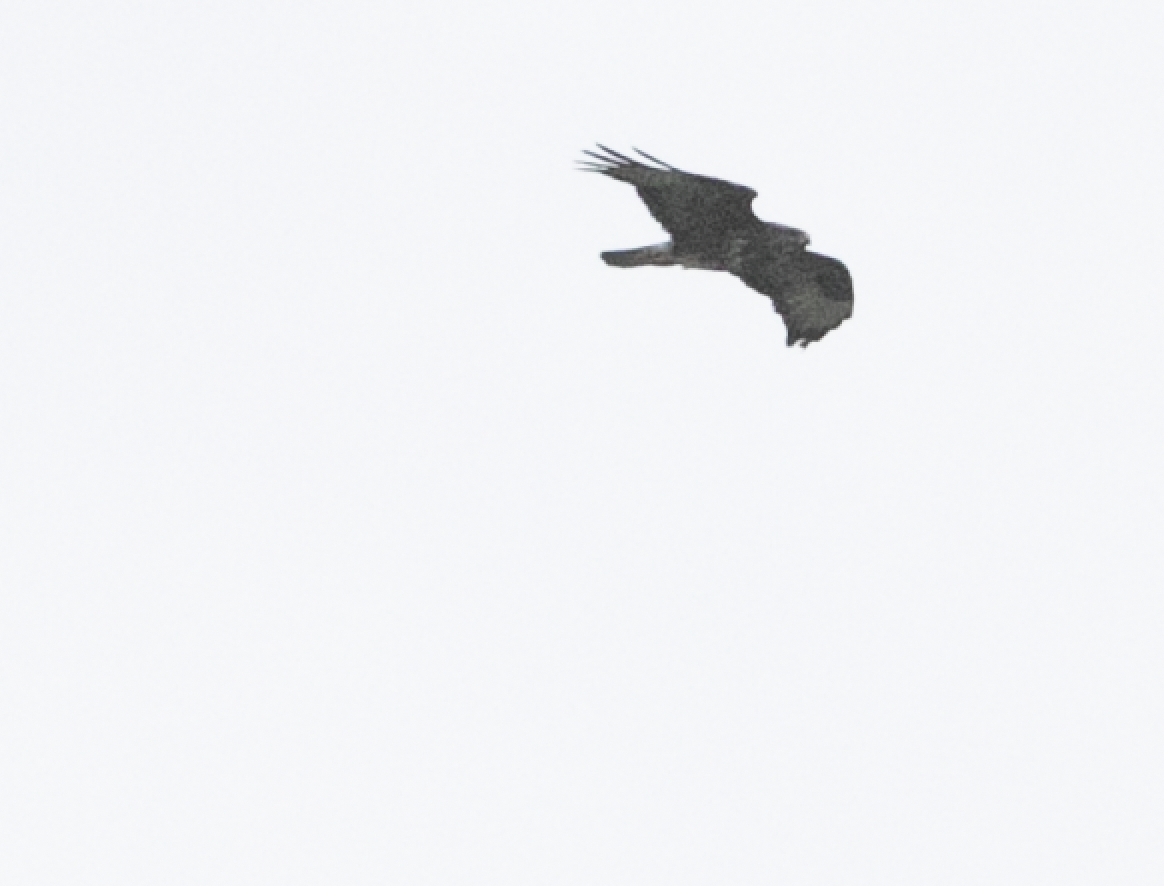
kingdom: Animalia
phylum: Chordata
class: Aves
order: Accipitriformes
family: Accipitridae
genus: Buteo
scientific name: Buteo buteo
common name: Common buzzard
